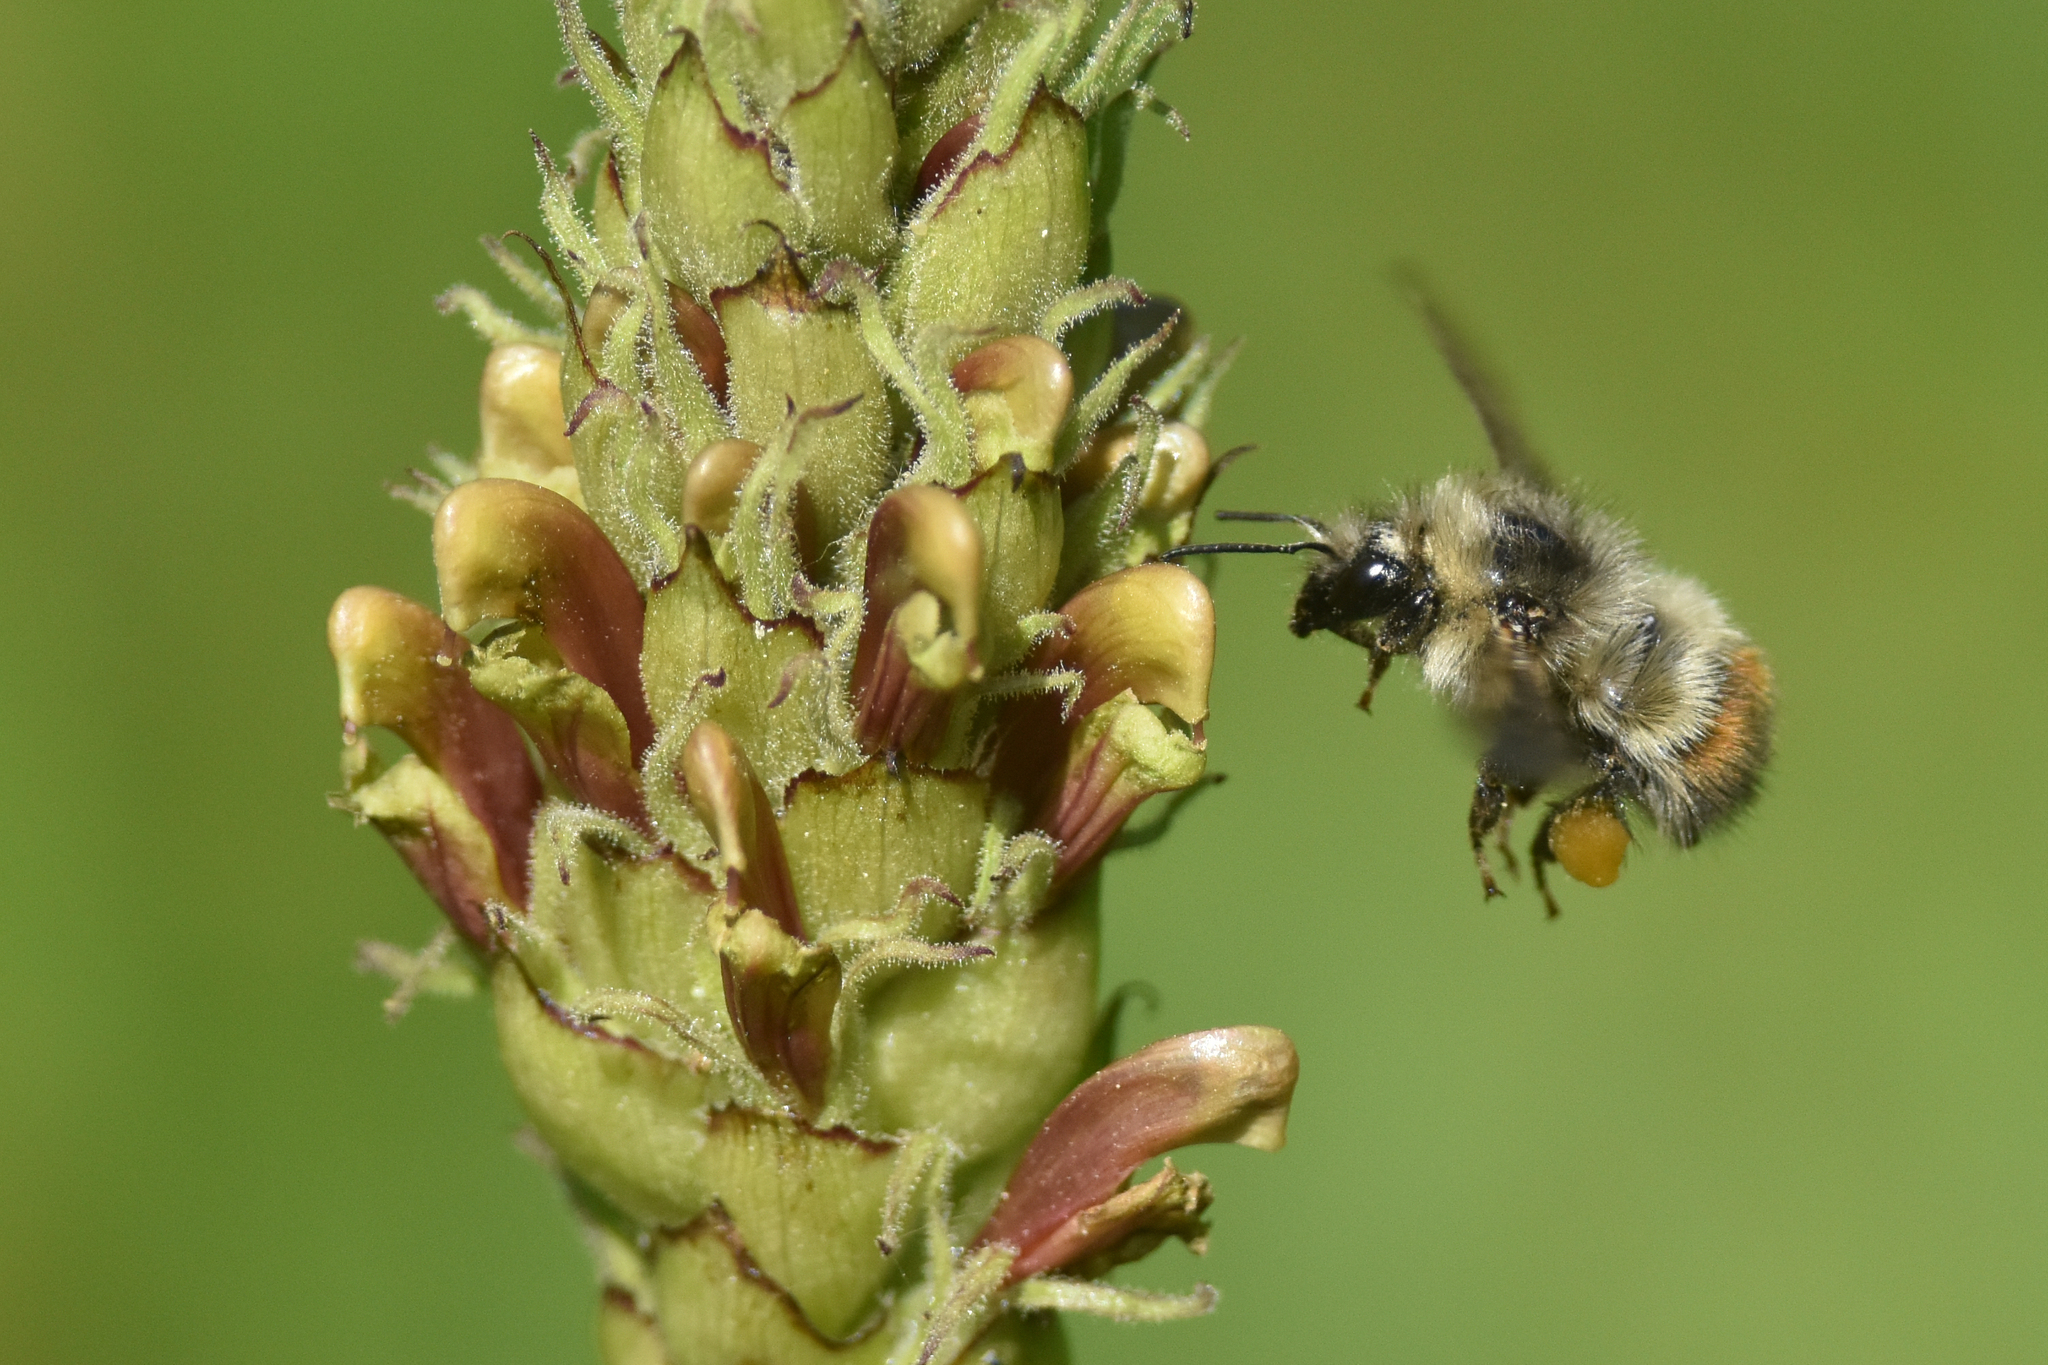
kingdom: Animalia
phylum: Arthropoda
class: Insecta
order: Hymenoptera
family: Apidae
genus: Bombus
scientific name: Bombus flavifrons
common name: Yellow head bumble bee
